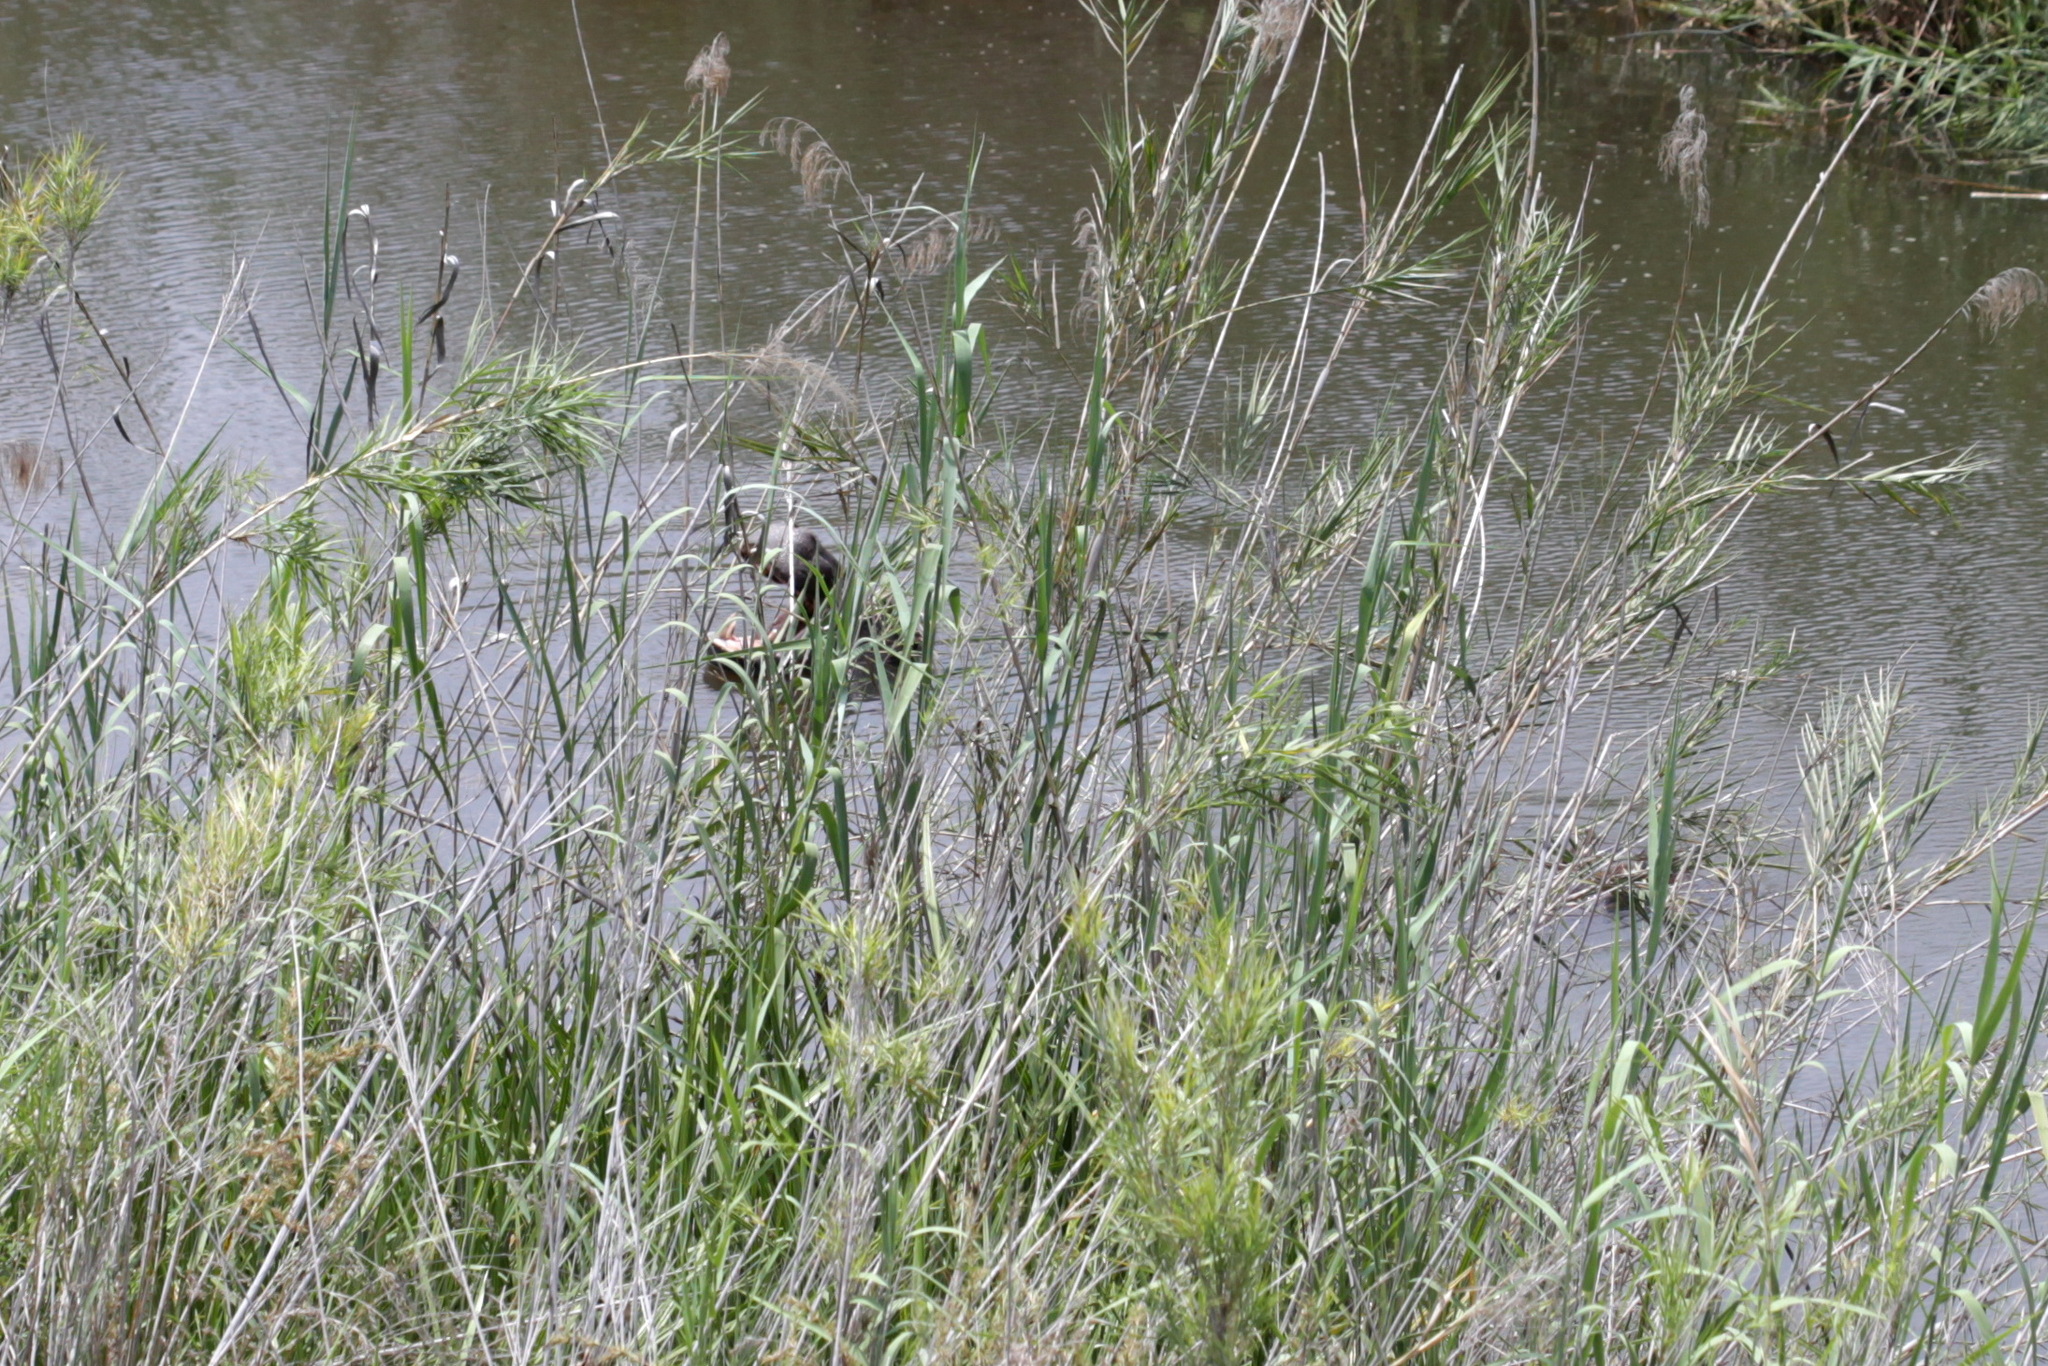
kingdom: Animalia
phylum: Chordata
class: Mammalia
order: Artiodactyla
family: Hippopotamidae
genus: Hippopotamus
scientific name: Hippopotamus amphibius
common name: Common hippopotamus
